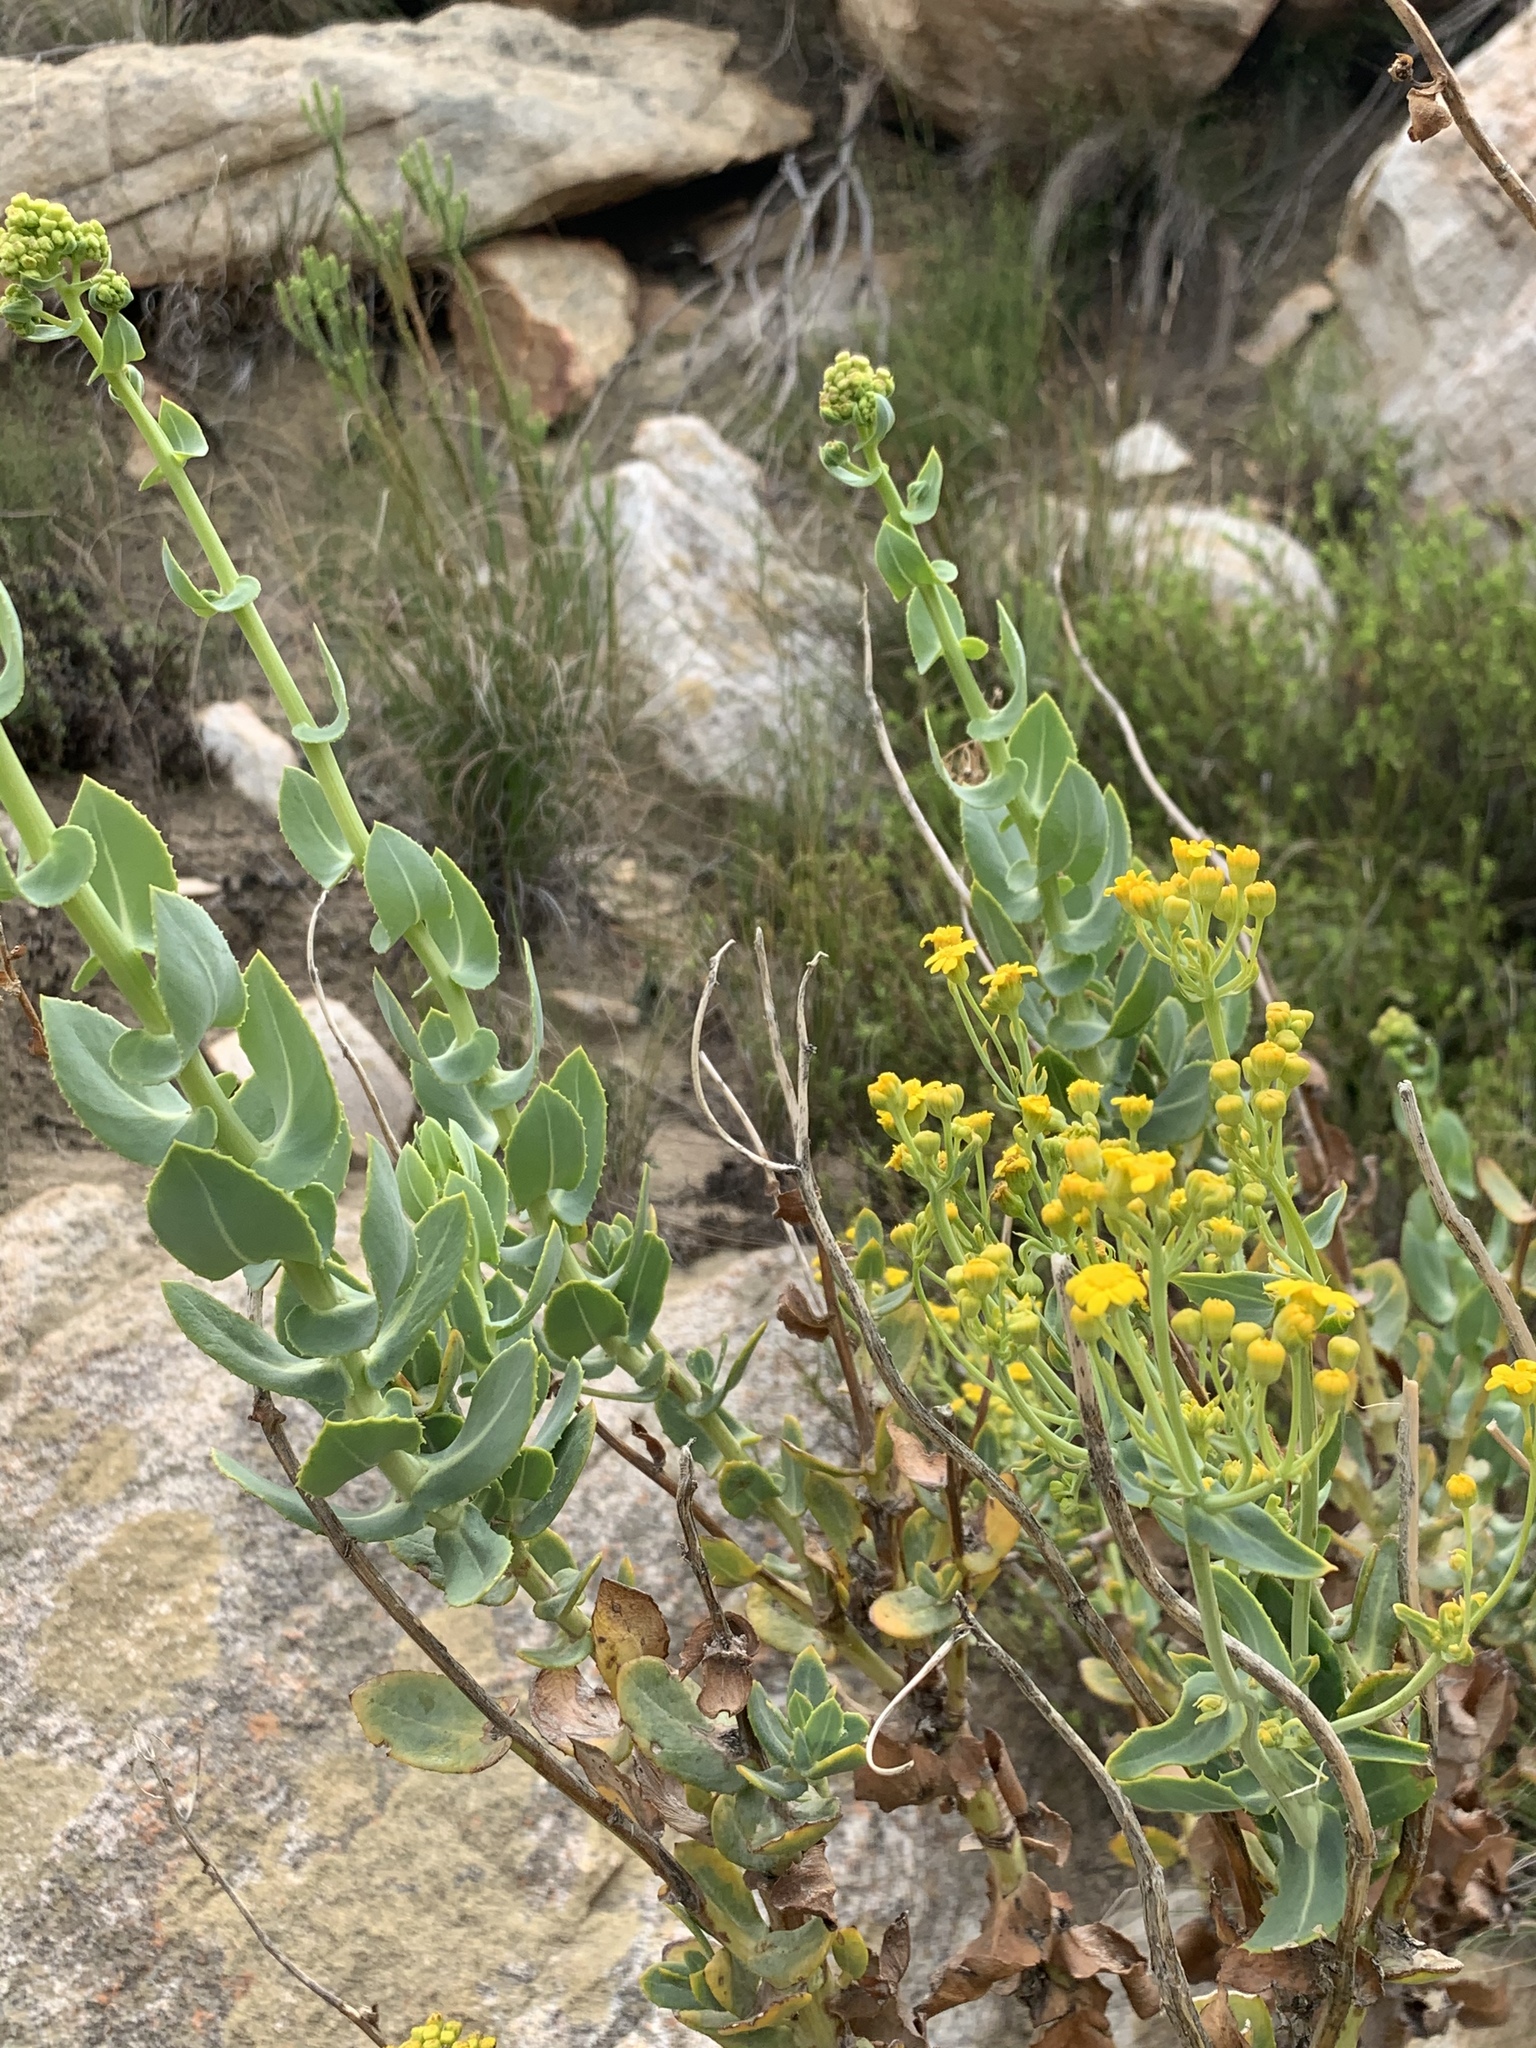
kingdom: Plantae
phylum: Tracheophyta
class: Magnoliopsida
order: Asterales
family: Asteraceae
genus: Othonna
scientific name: Othonna parviflora
